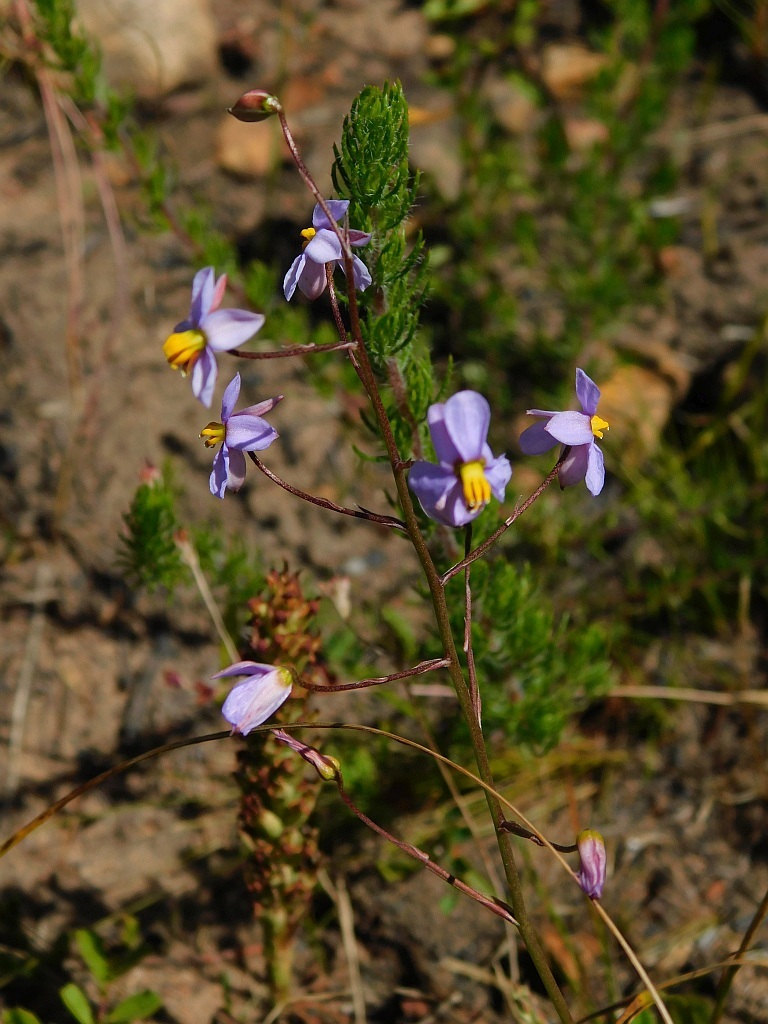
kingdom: Plantae
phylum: Tracheophyta
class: Liliopsida
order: Asparagales
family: Tecophilaeaceae
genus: Cyanella
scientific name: Cyanella hyacinthoides
